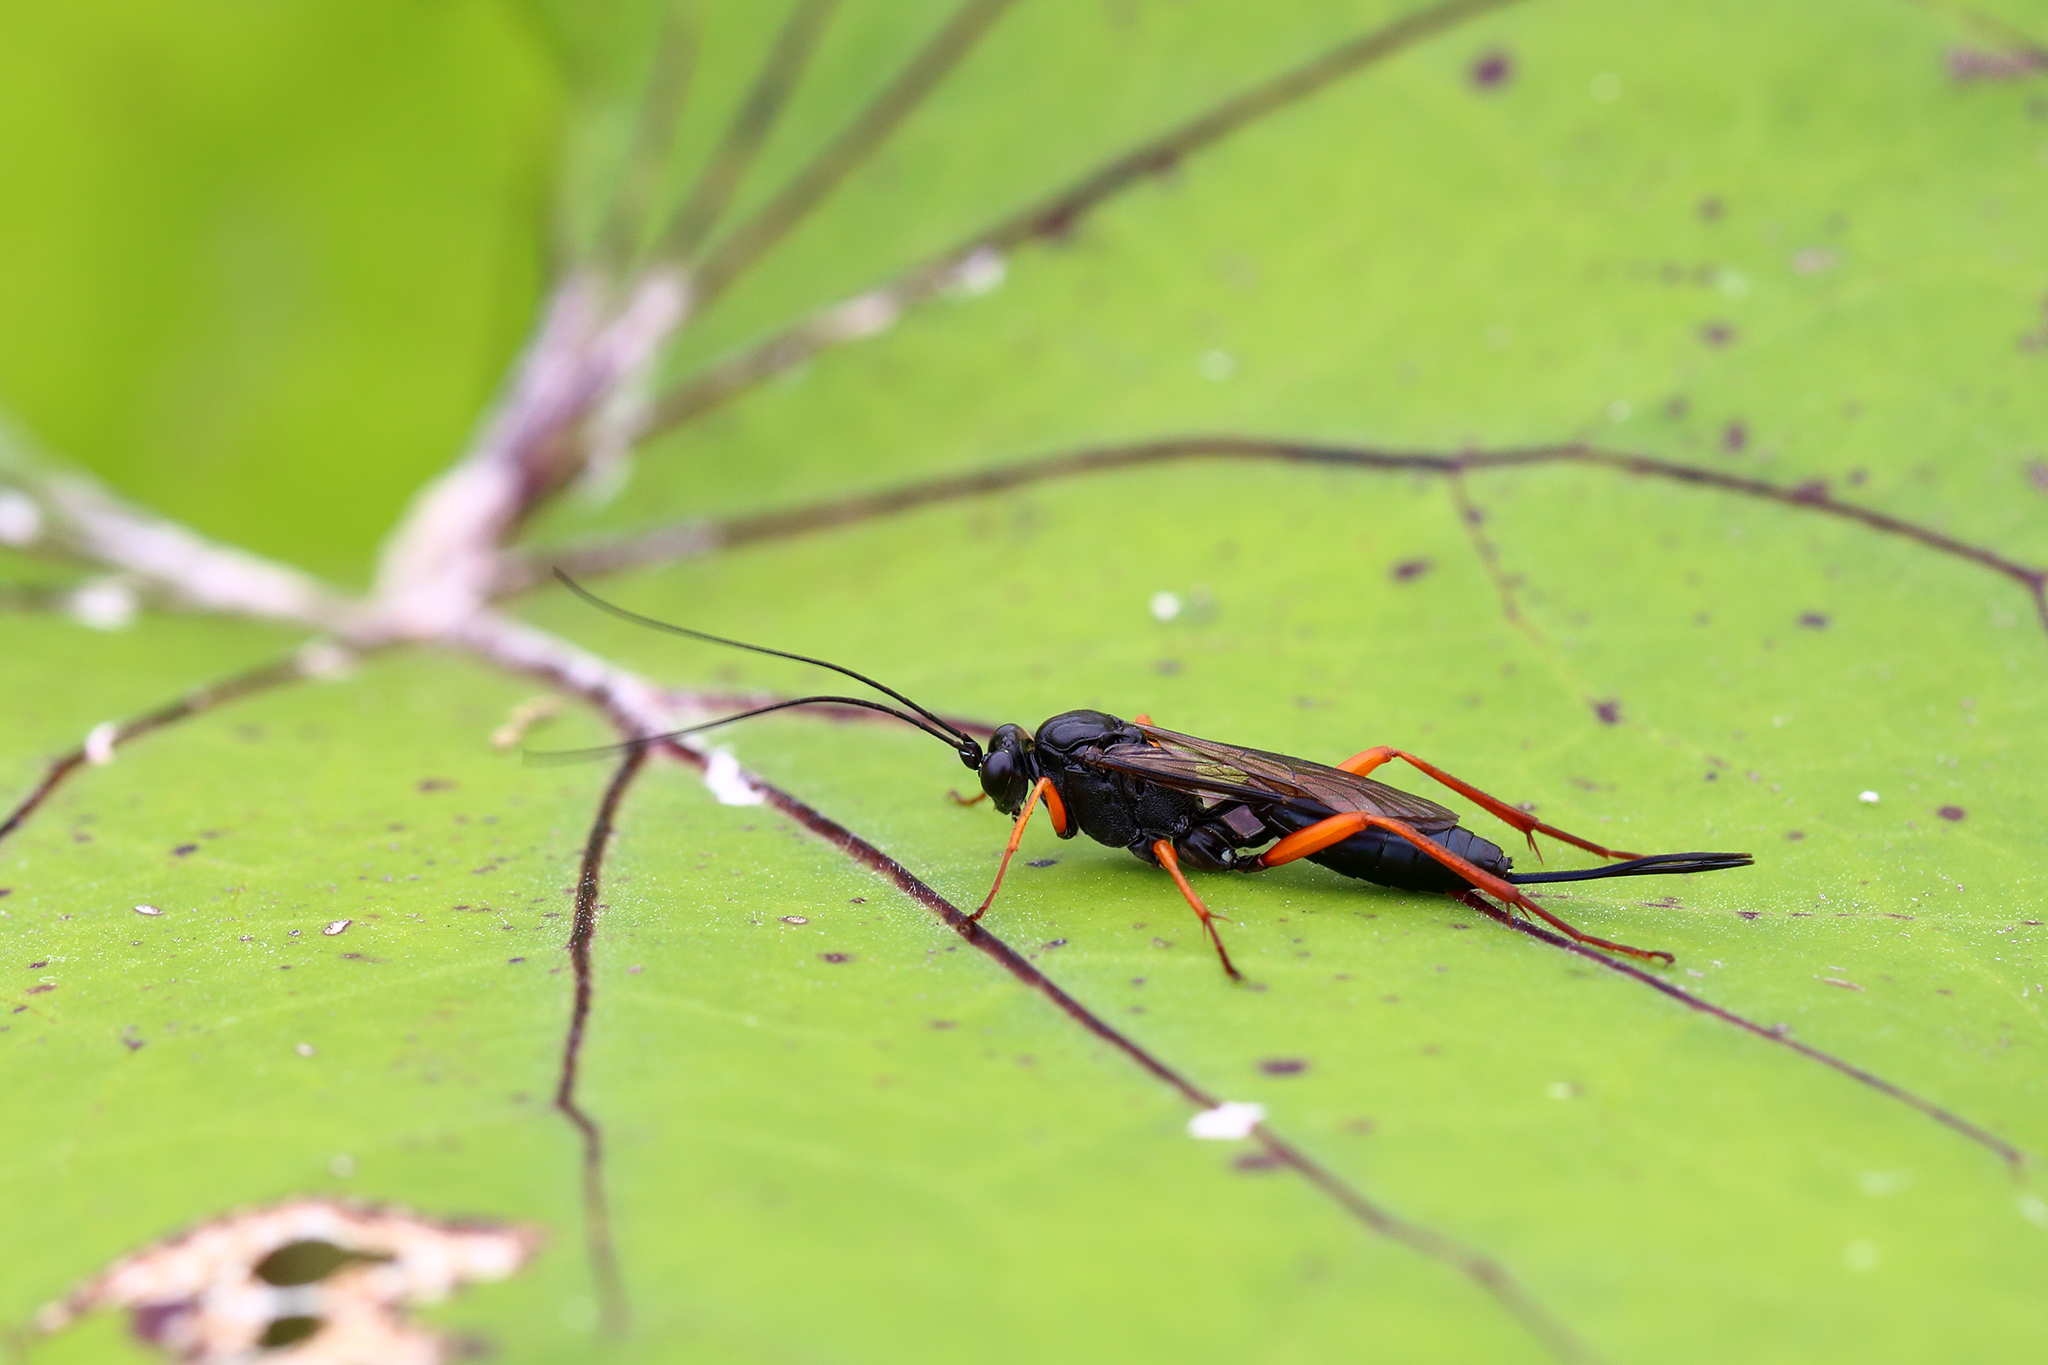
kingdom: Animalia
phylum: Arthropoda
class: Insecta
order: Hymenoptera
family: Ichneumonidae
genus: Buathra
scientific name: Buathra laborator
